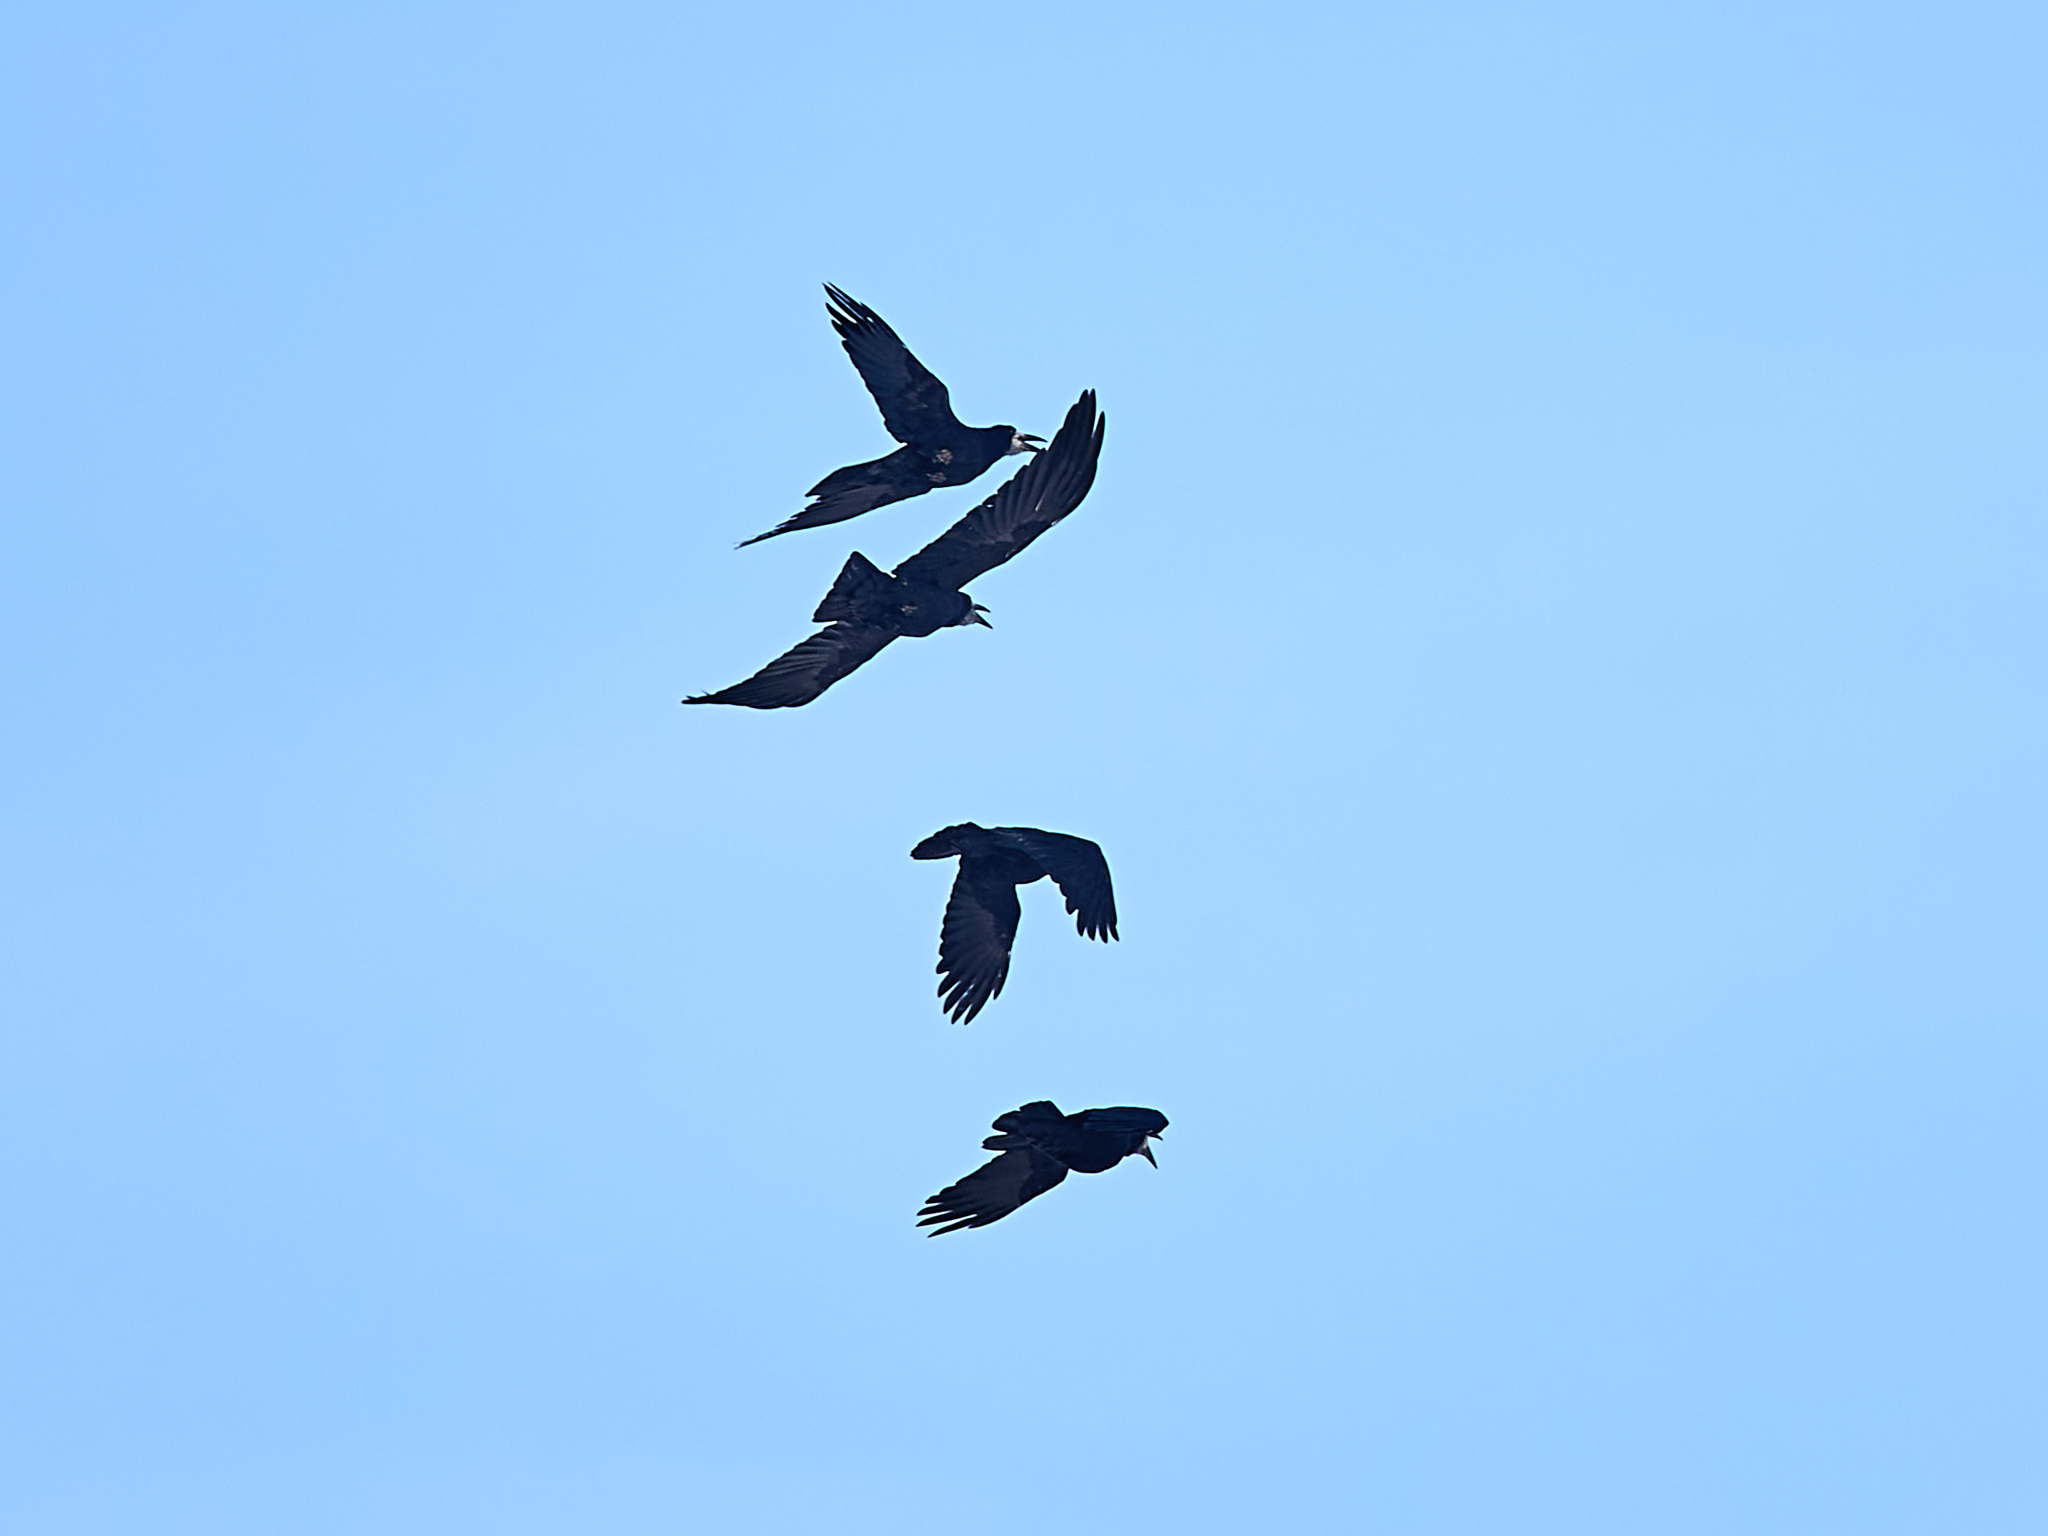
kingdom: Animalia
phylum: Chordata
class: Aves
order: Passeriformes
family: Corvidae
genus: Corvus
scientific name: Corvus frugilegus
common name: Rook
